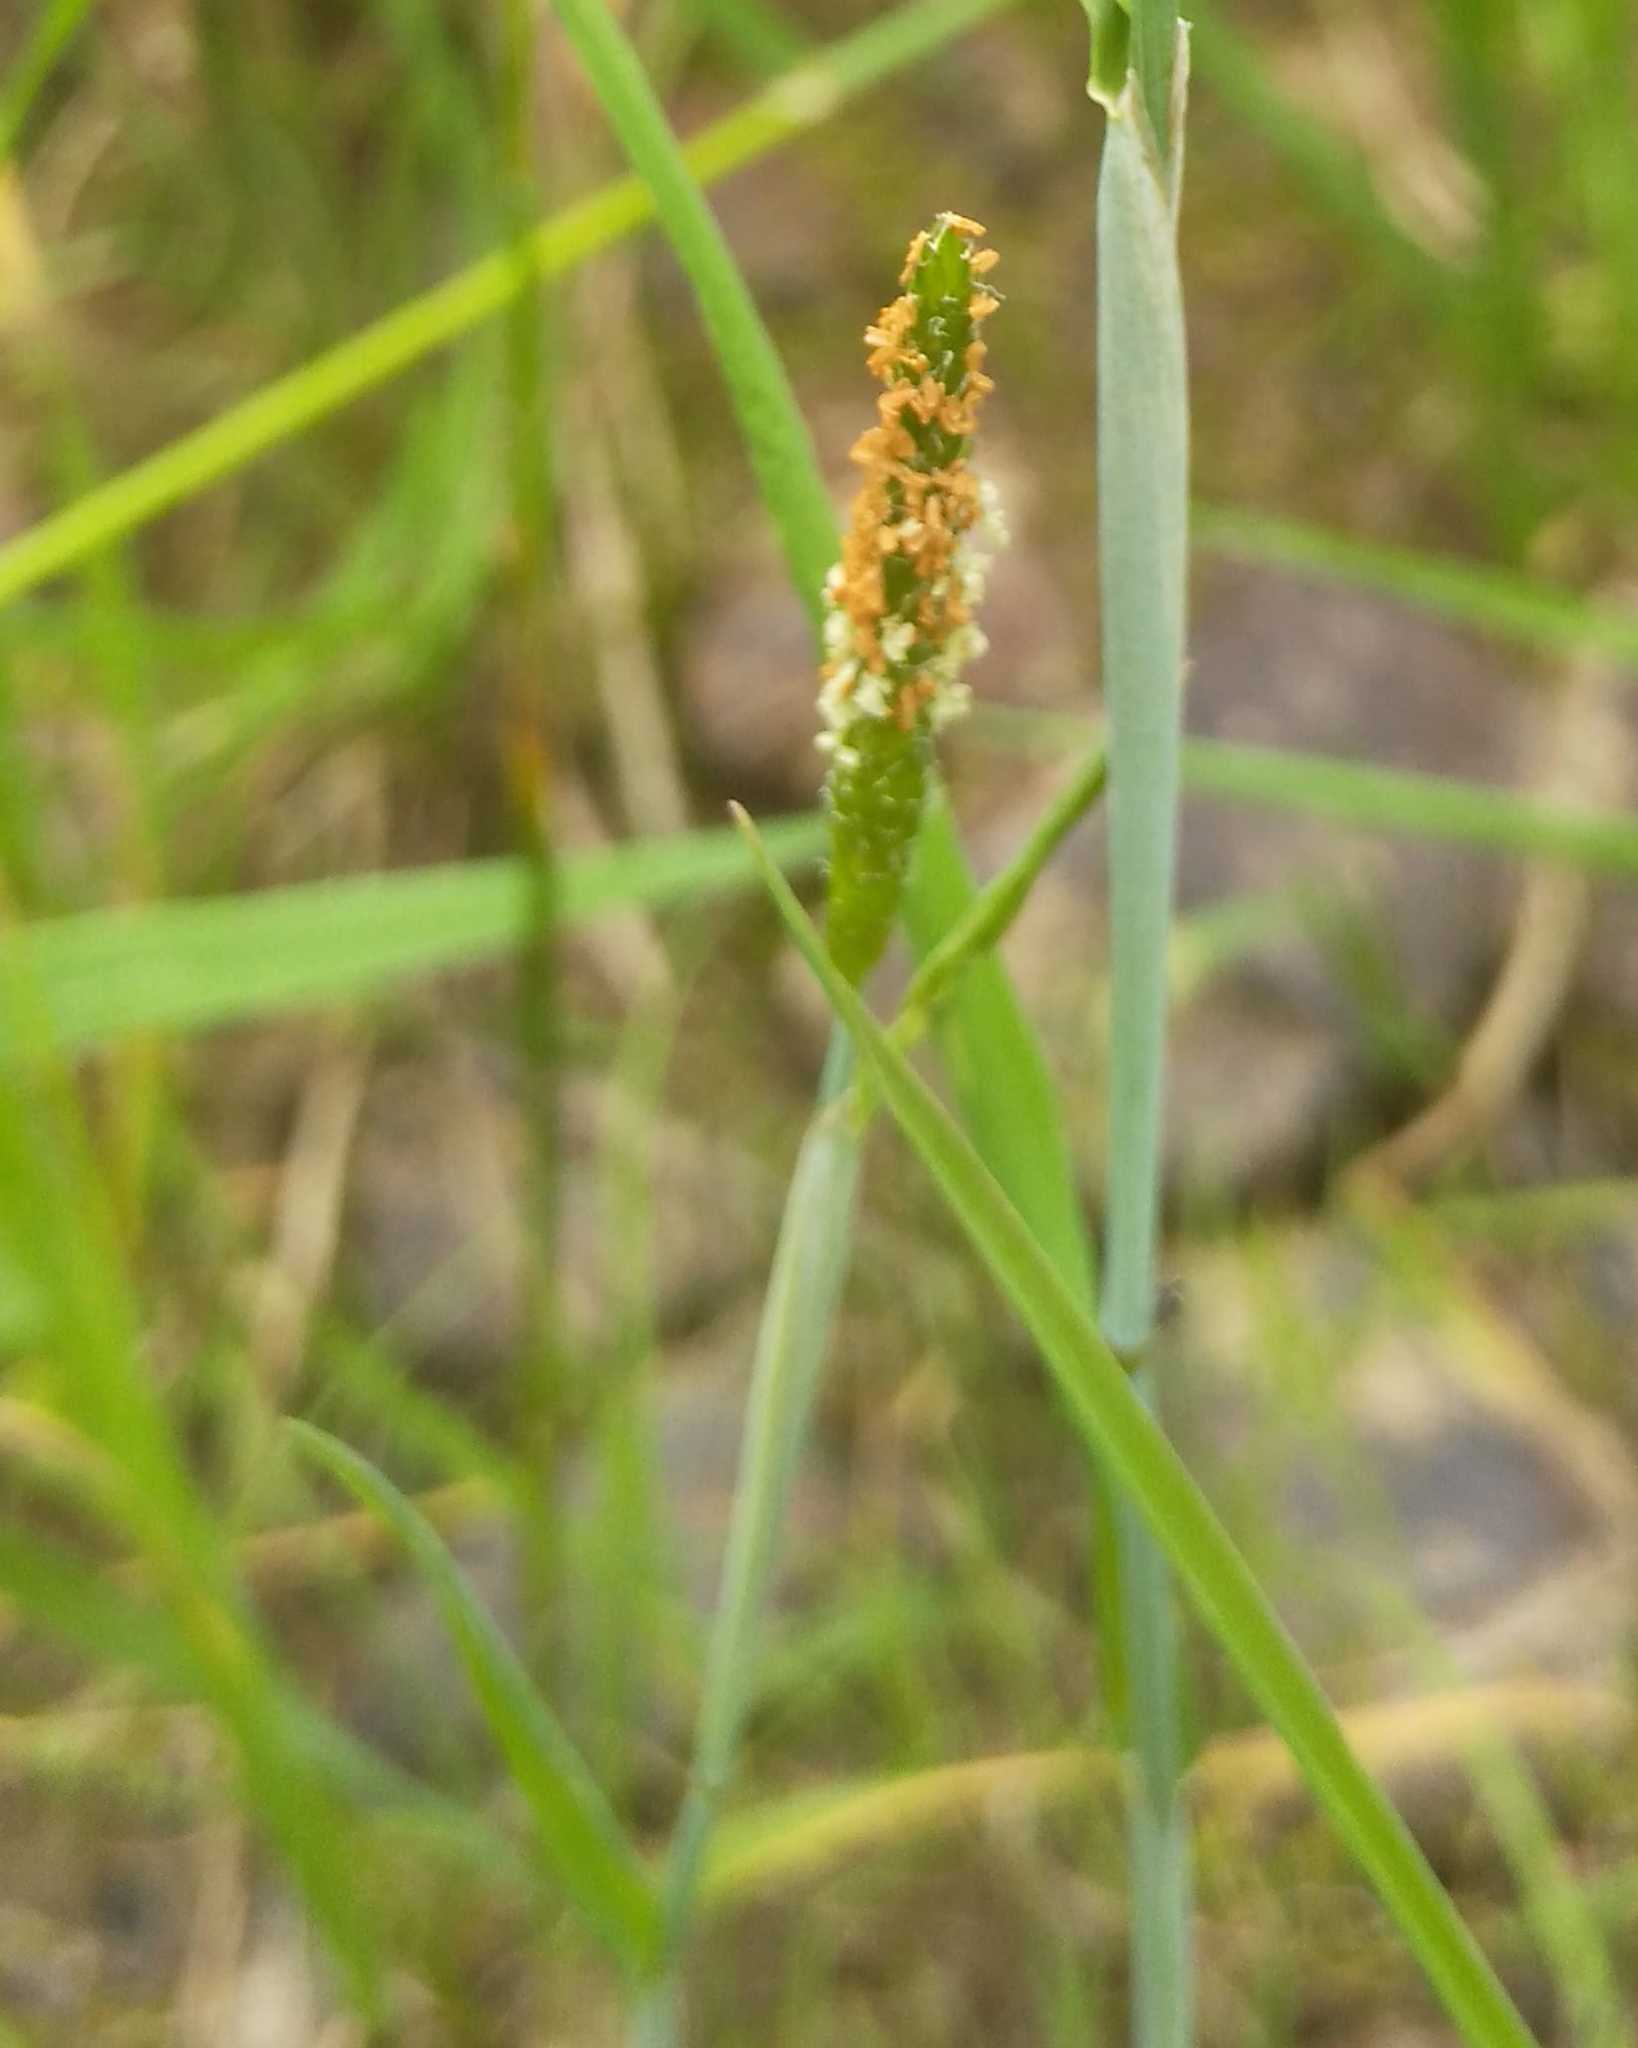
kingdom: Plantae
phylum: Tracheophyta
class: Liliopsida
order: Poales
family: Poaceae
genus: Alopecurus
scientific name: Alopecurus aequalis
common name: Orange foxtail
